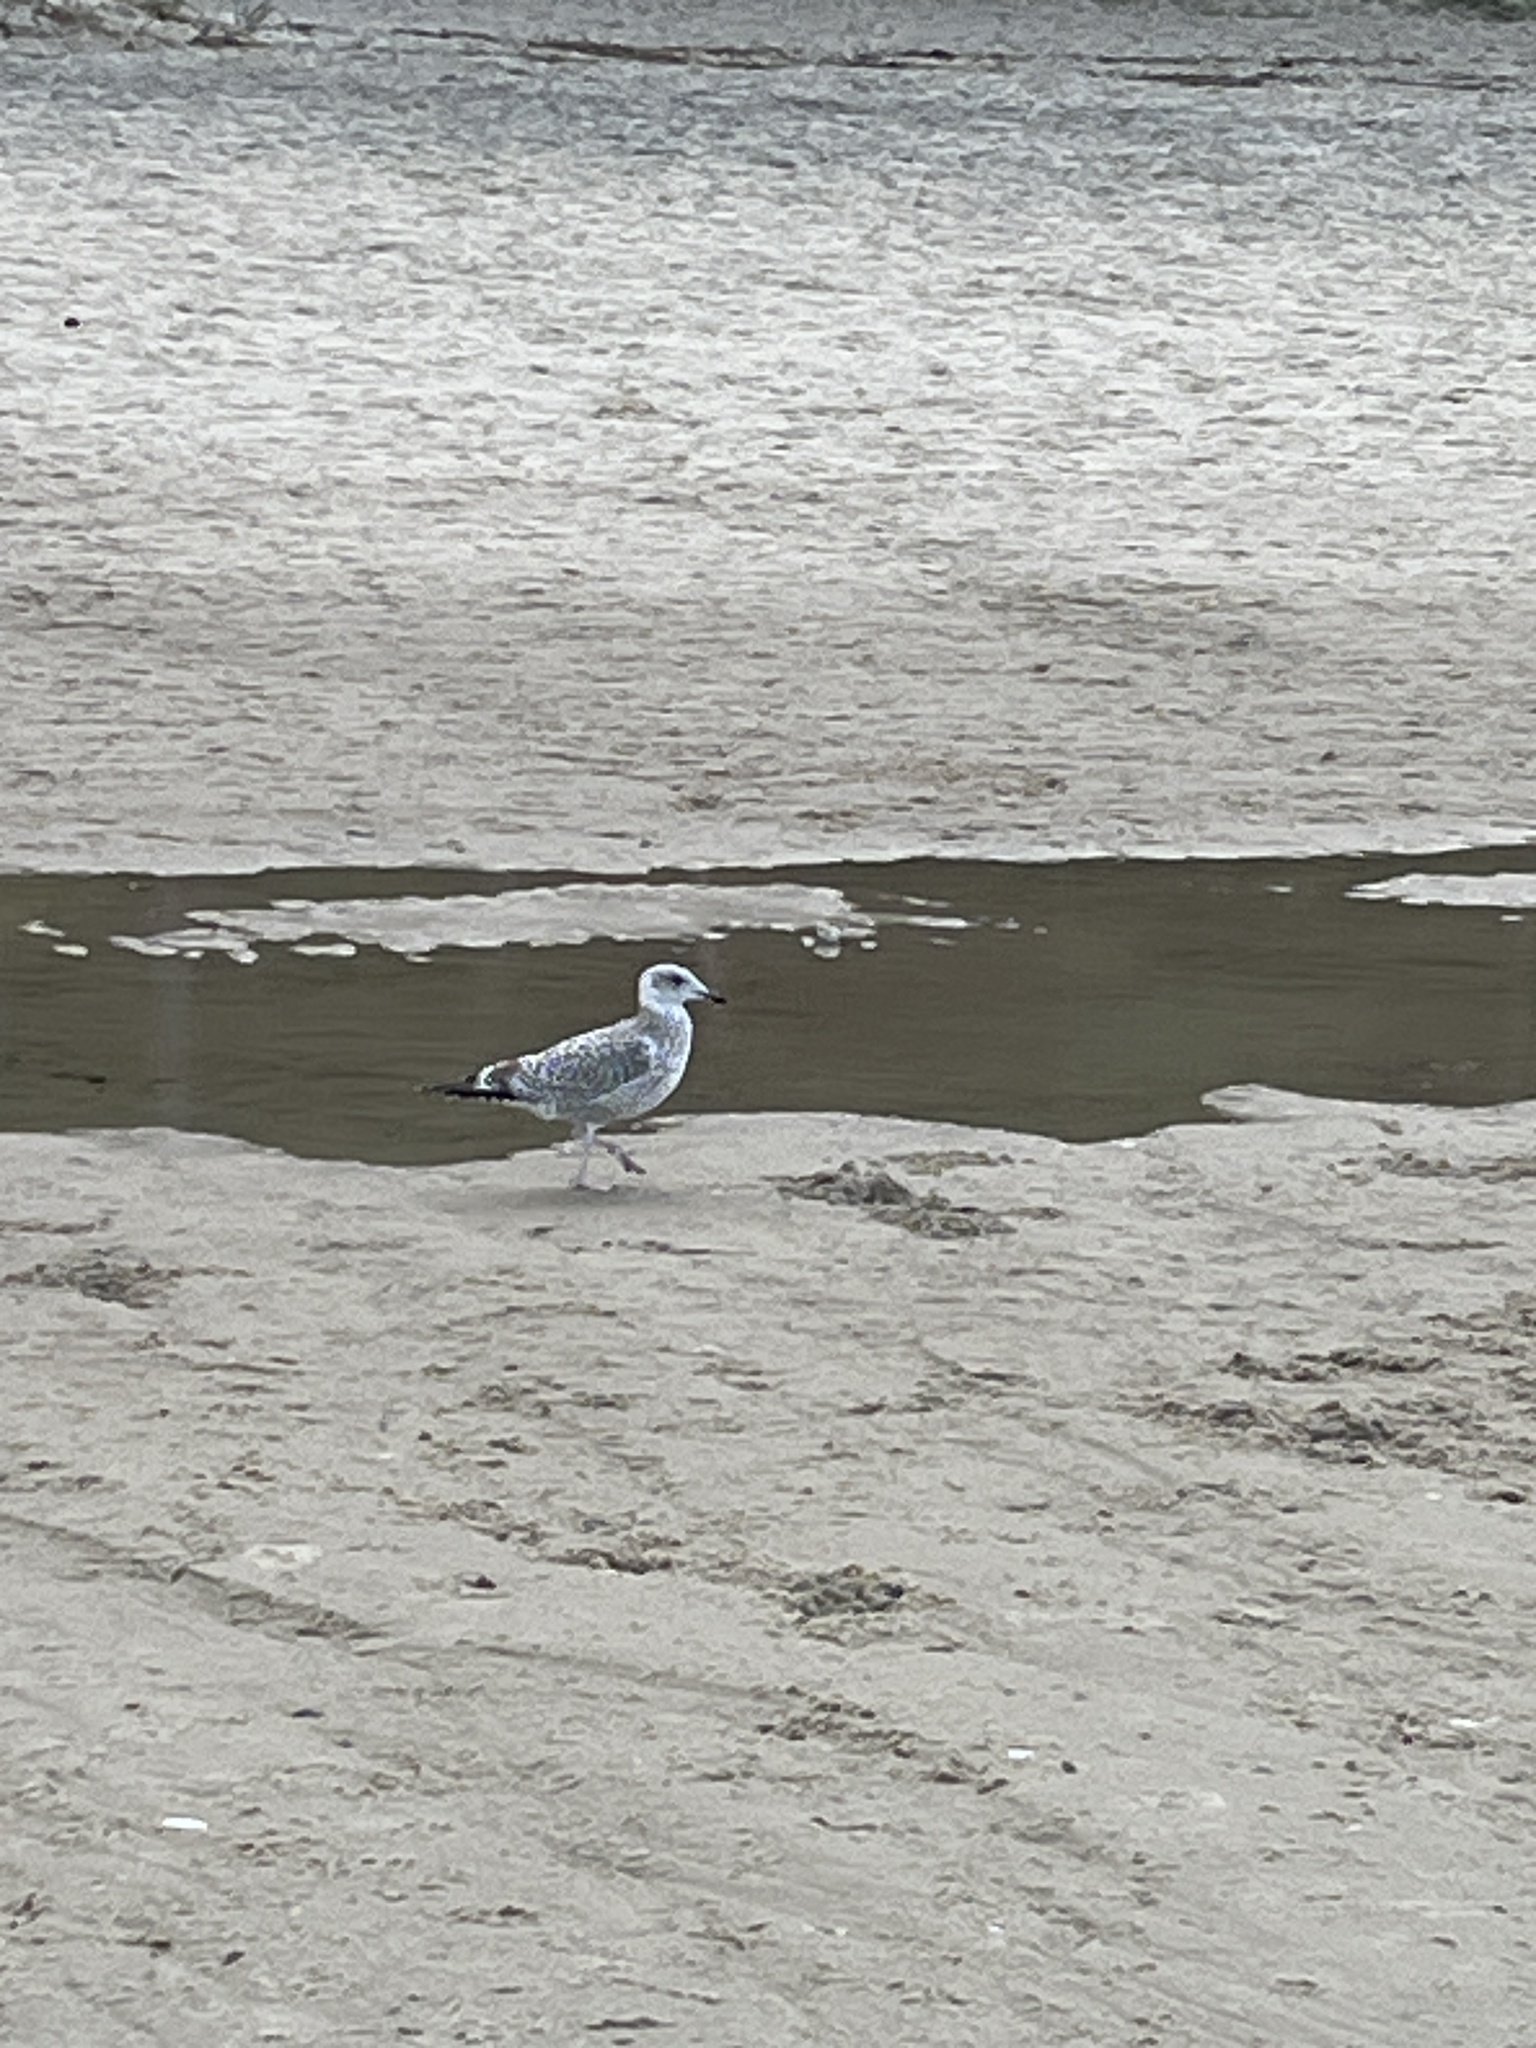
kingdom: Animalia
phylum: Chordata
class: Aves
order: Charadriiformes
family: Laridae
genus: Larus
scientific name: Larus argentatus
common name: Herring gull
